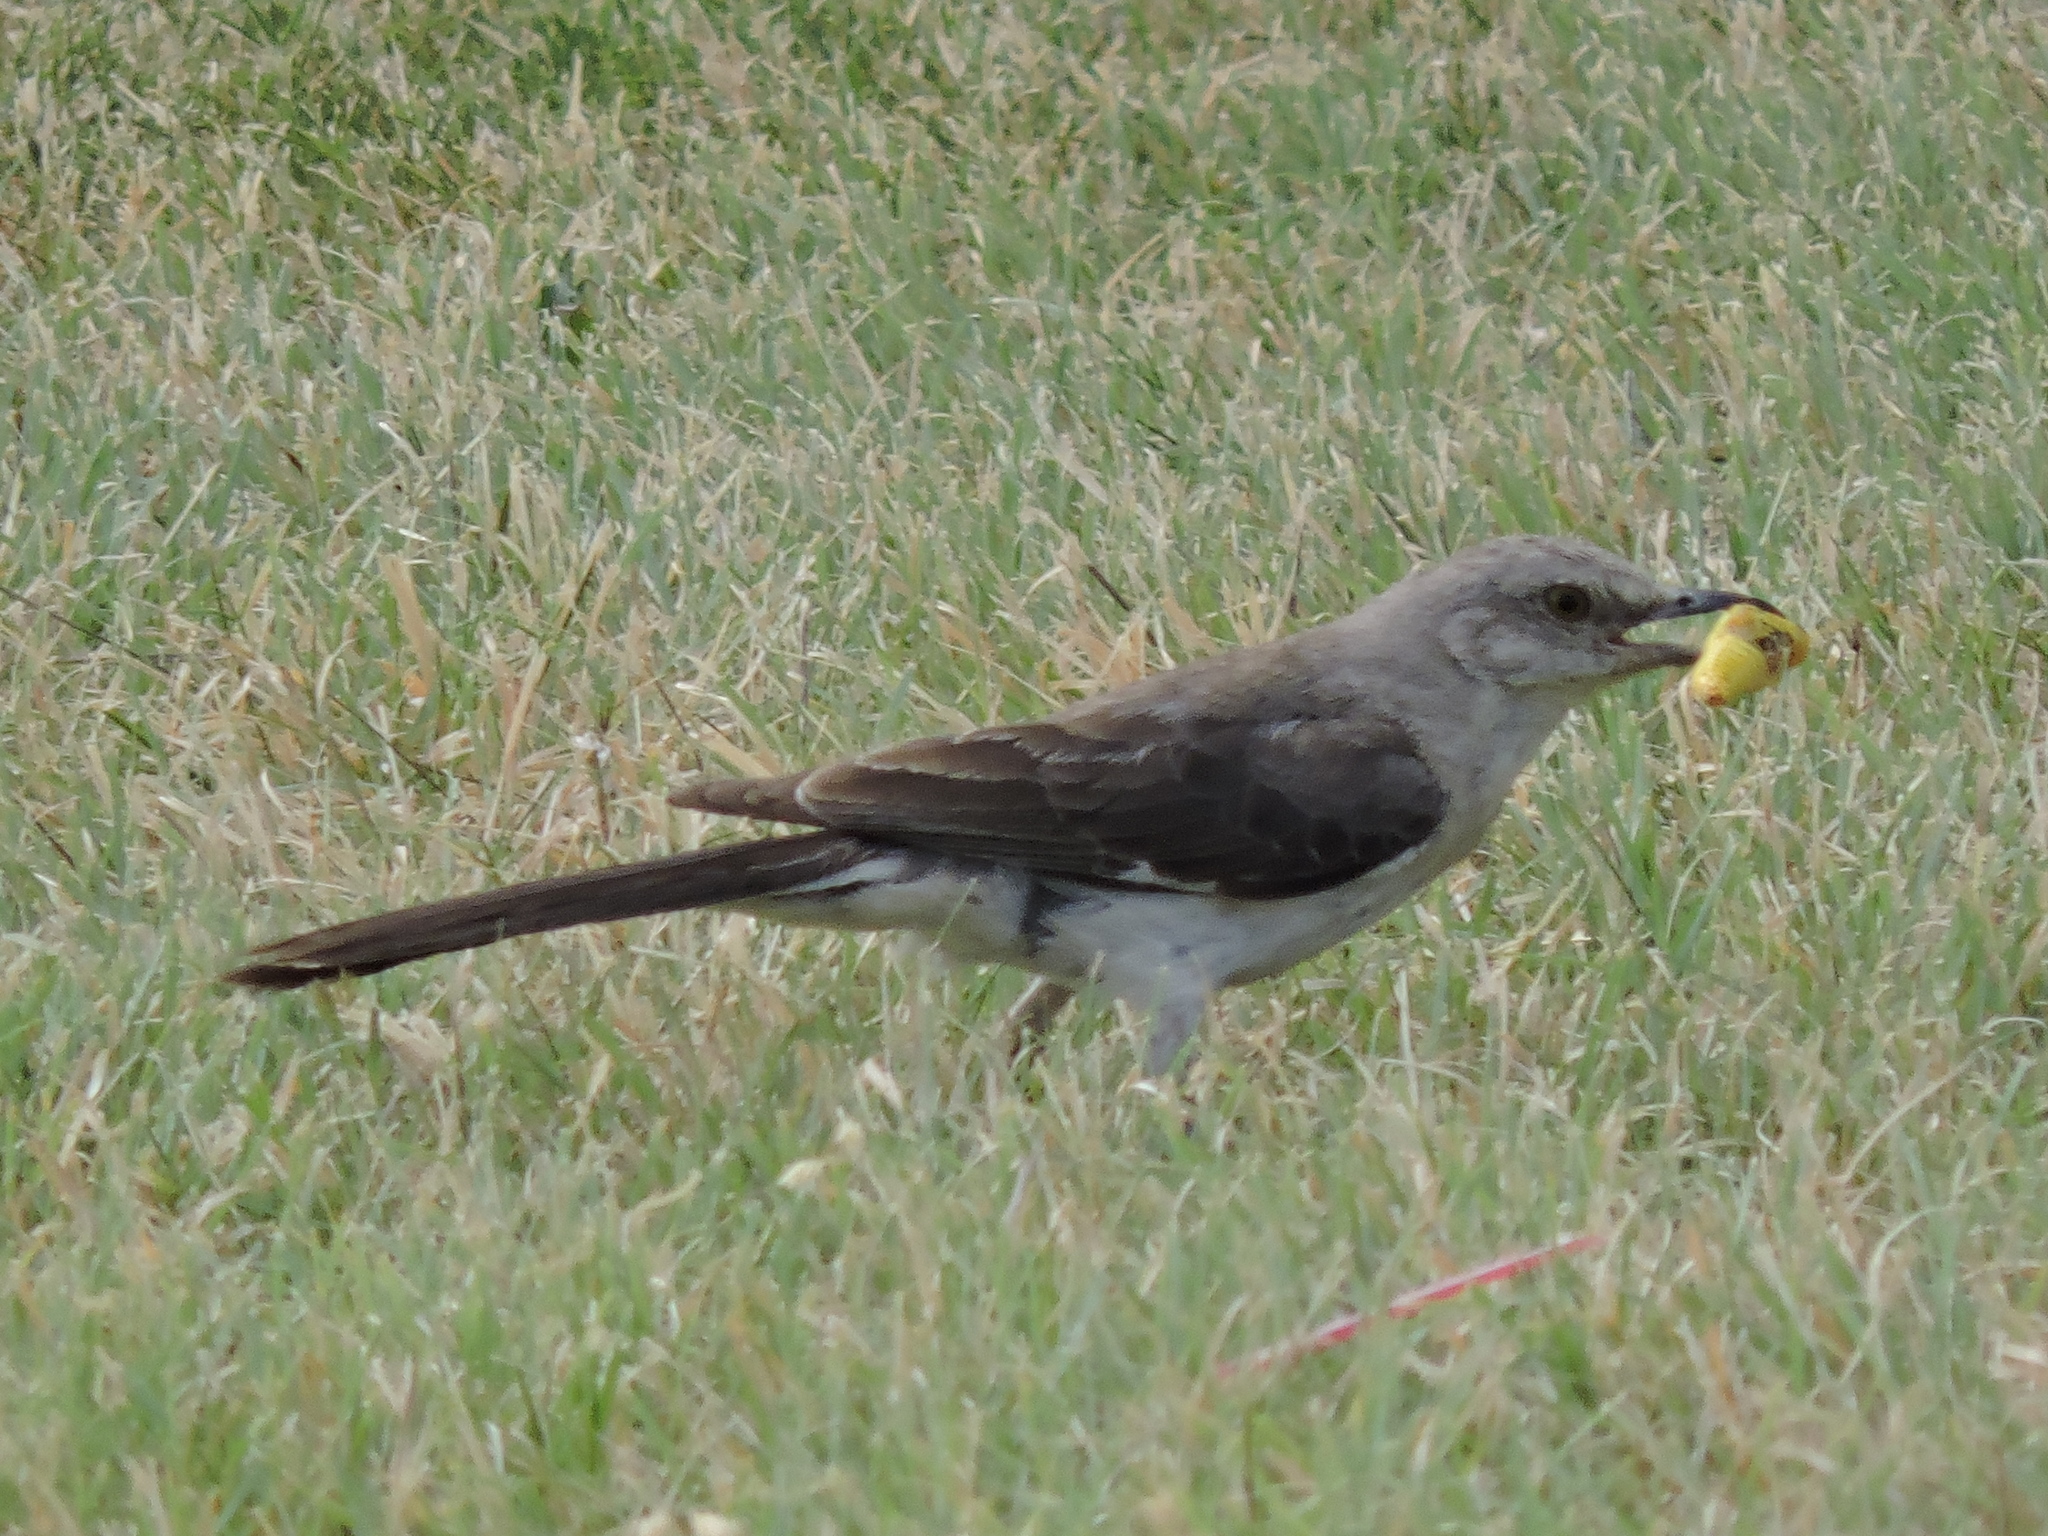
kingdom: Animalia
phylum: Chordata
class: Aves
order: Passeriformes
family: Mimidae
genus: Mimus
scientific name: Mimus polyglottos
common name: Northern mockingbird
